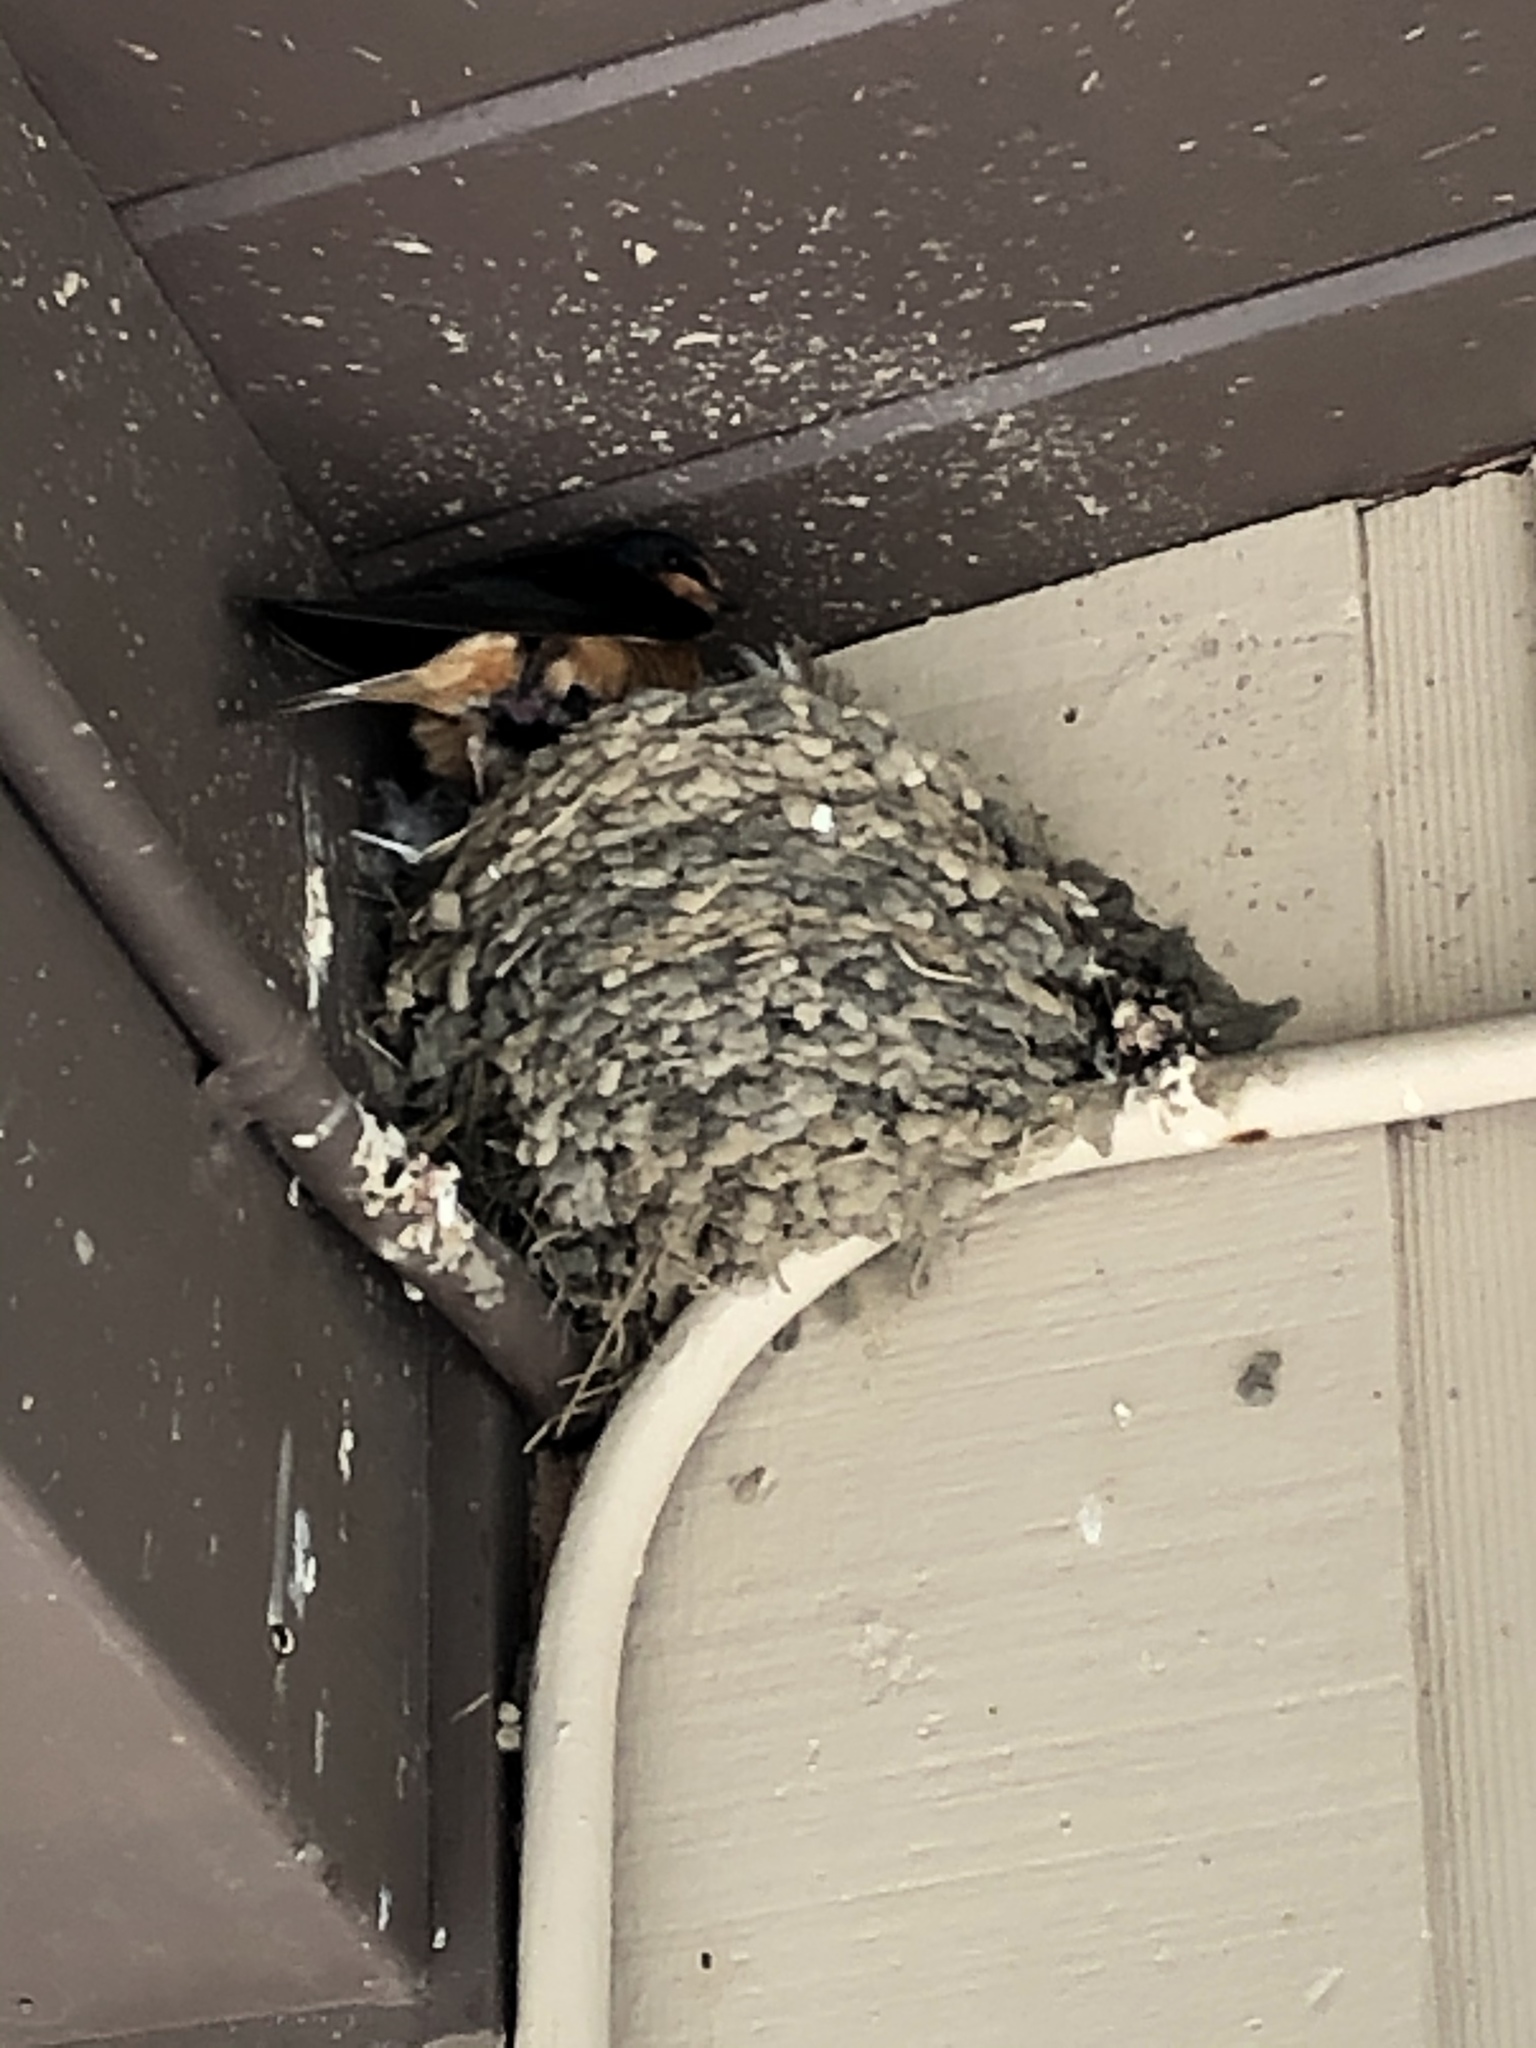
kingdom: Animalia
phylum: Chordata
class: Aves
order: Passeriformes
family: Hirundinidae
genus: Hirundo
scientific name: Hirundo rustica
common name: Barn swallow
